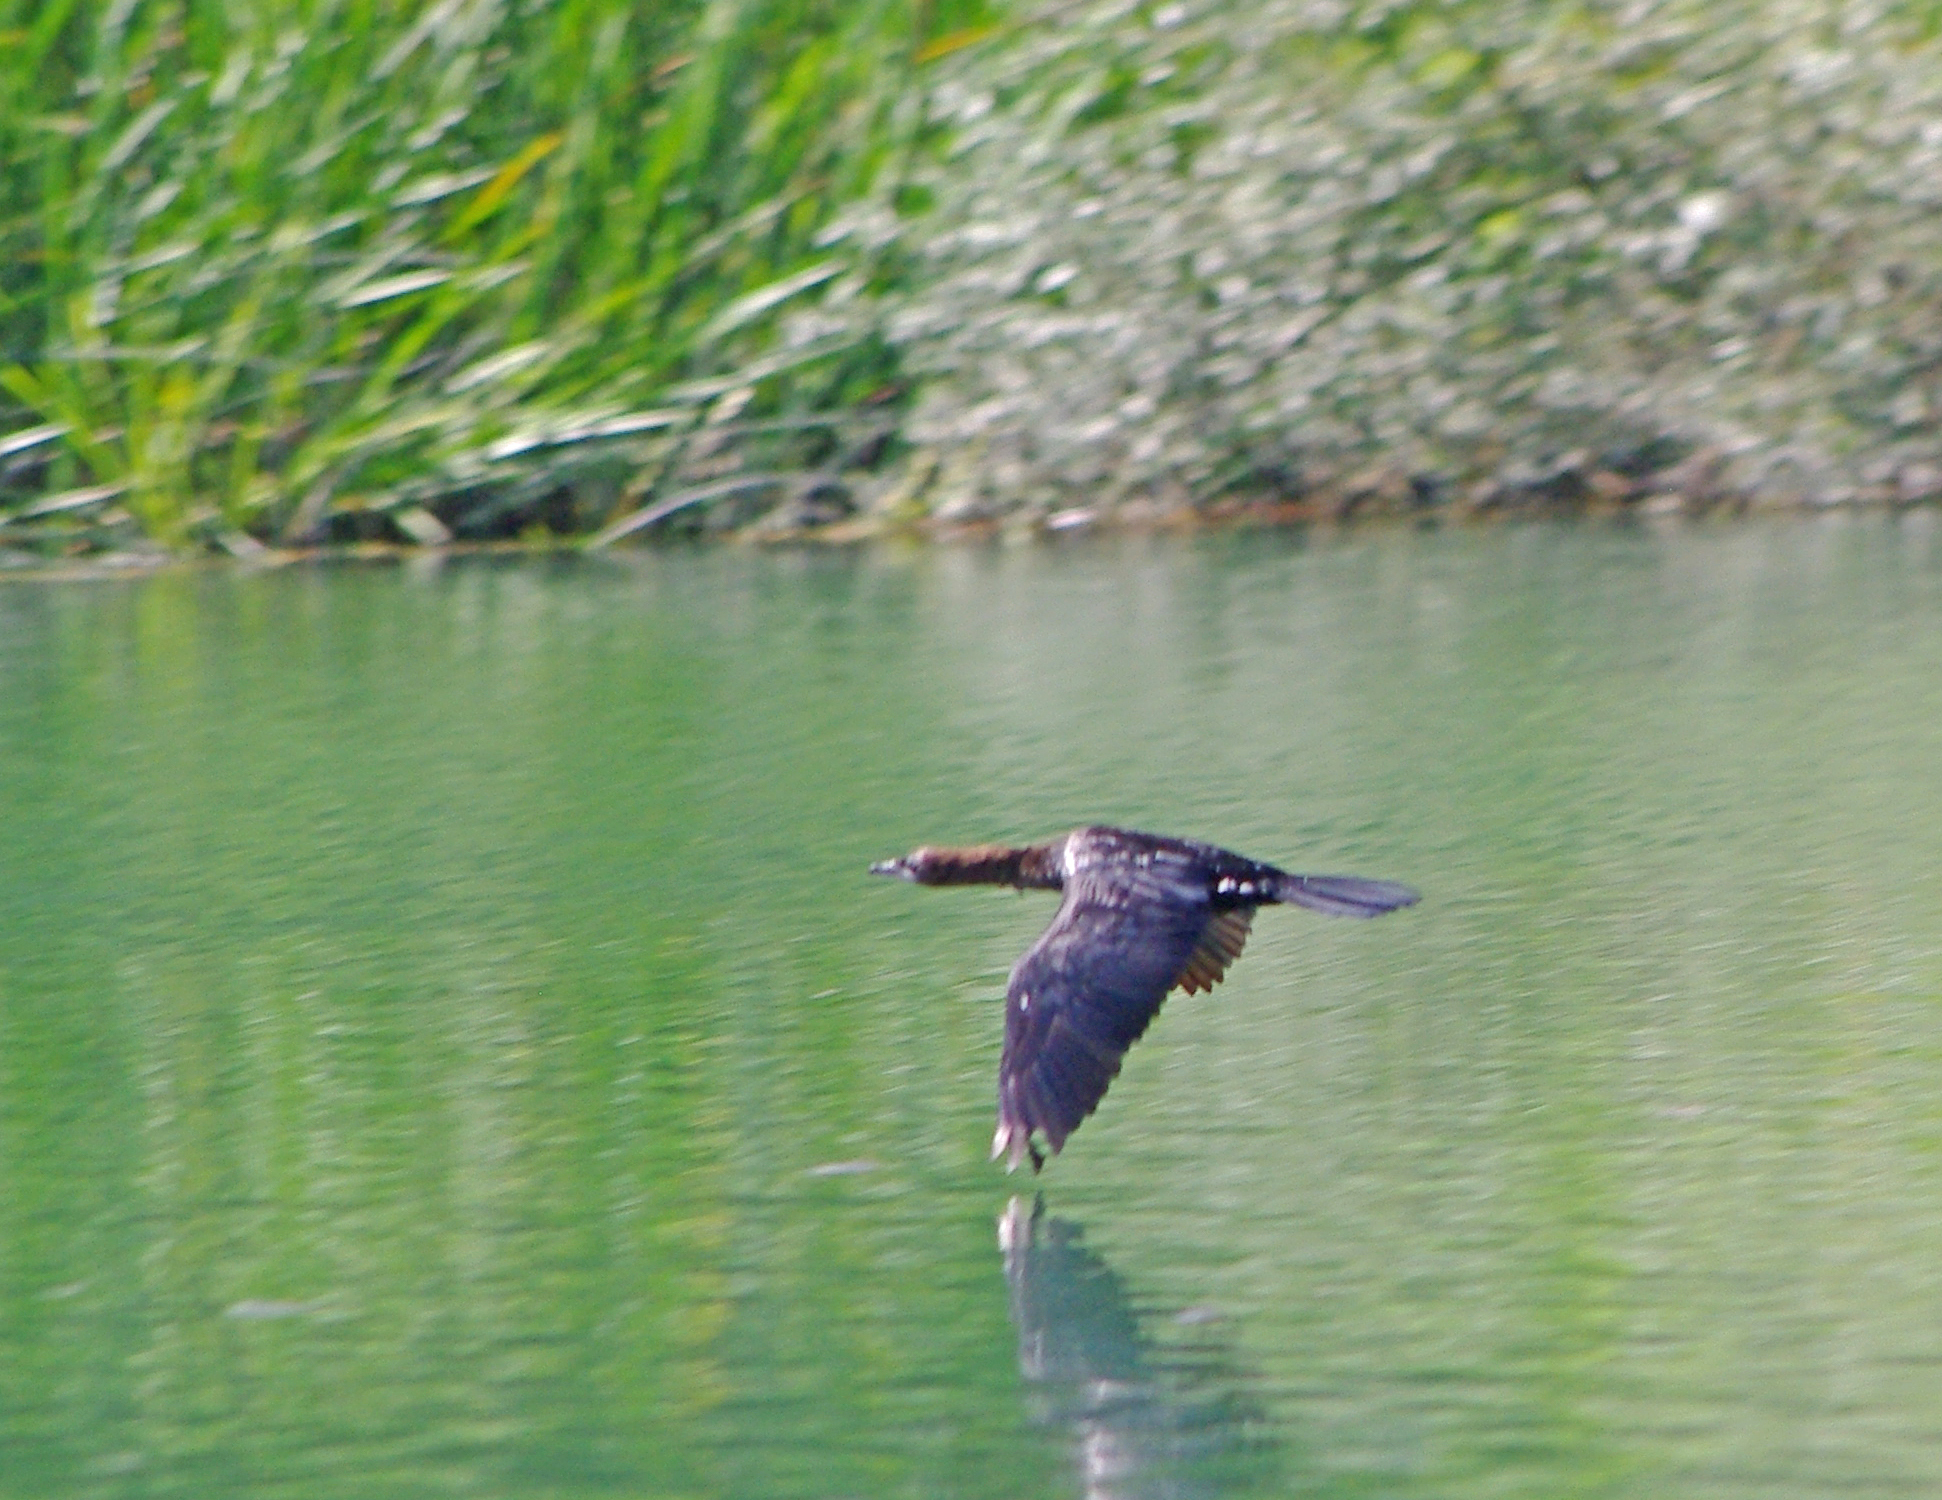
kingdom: Animalia
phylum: Chordata
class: Aves
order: Suliformes
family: Phalacrocoracidae
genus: Microcarbo
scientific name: Microcarbo pygmaeus
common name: Pygmy cormorant
